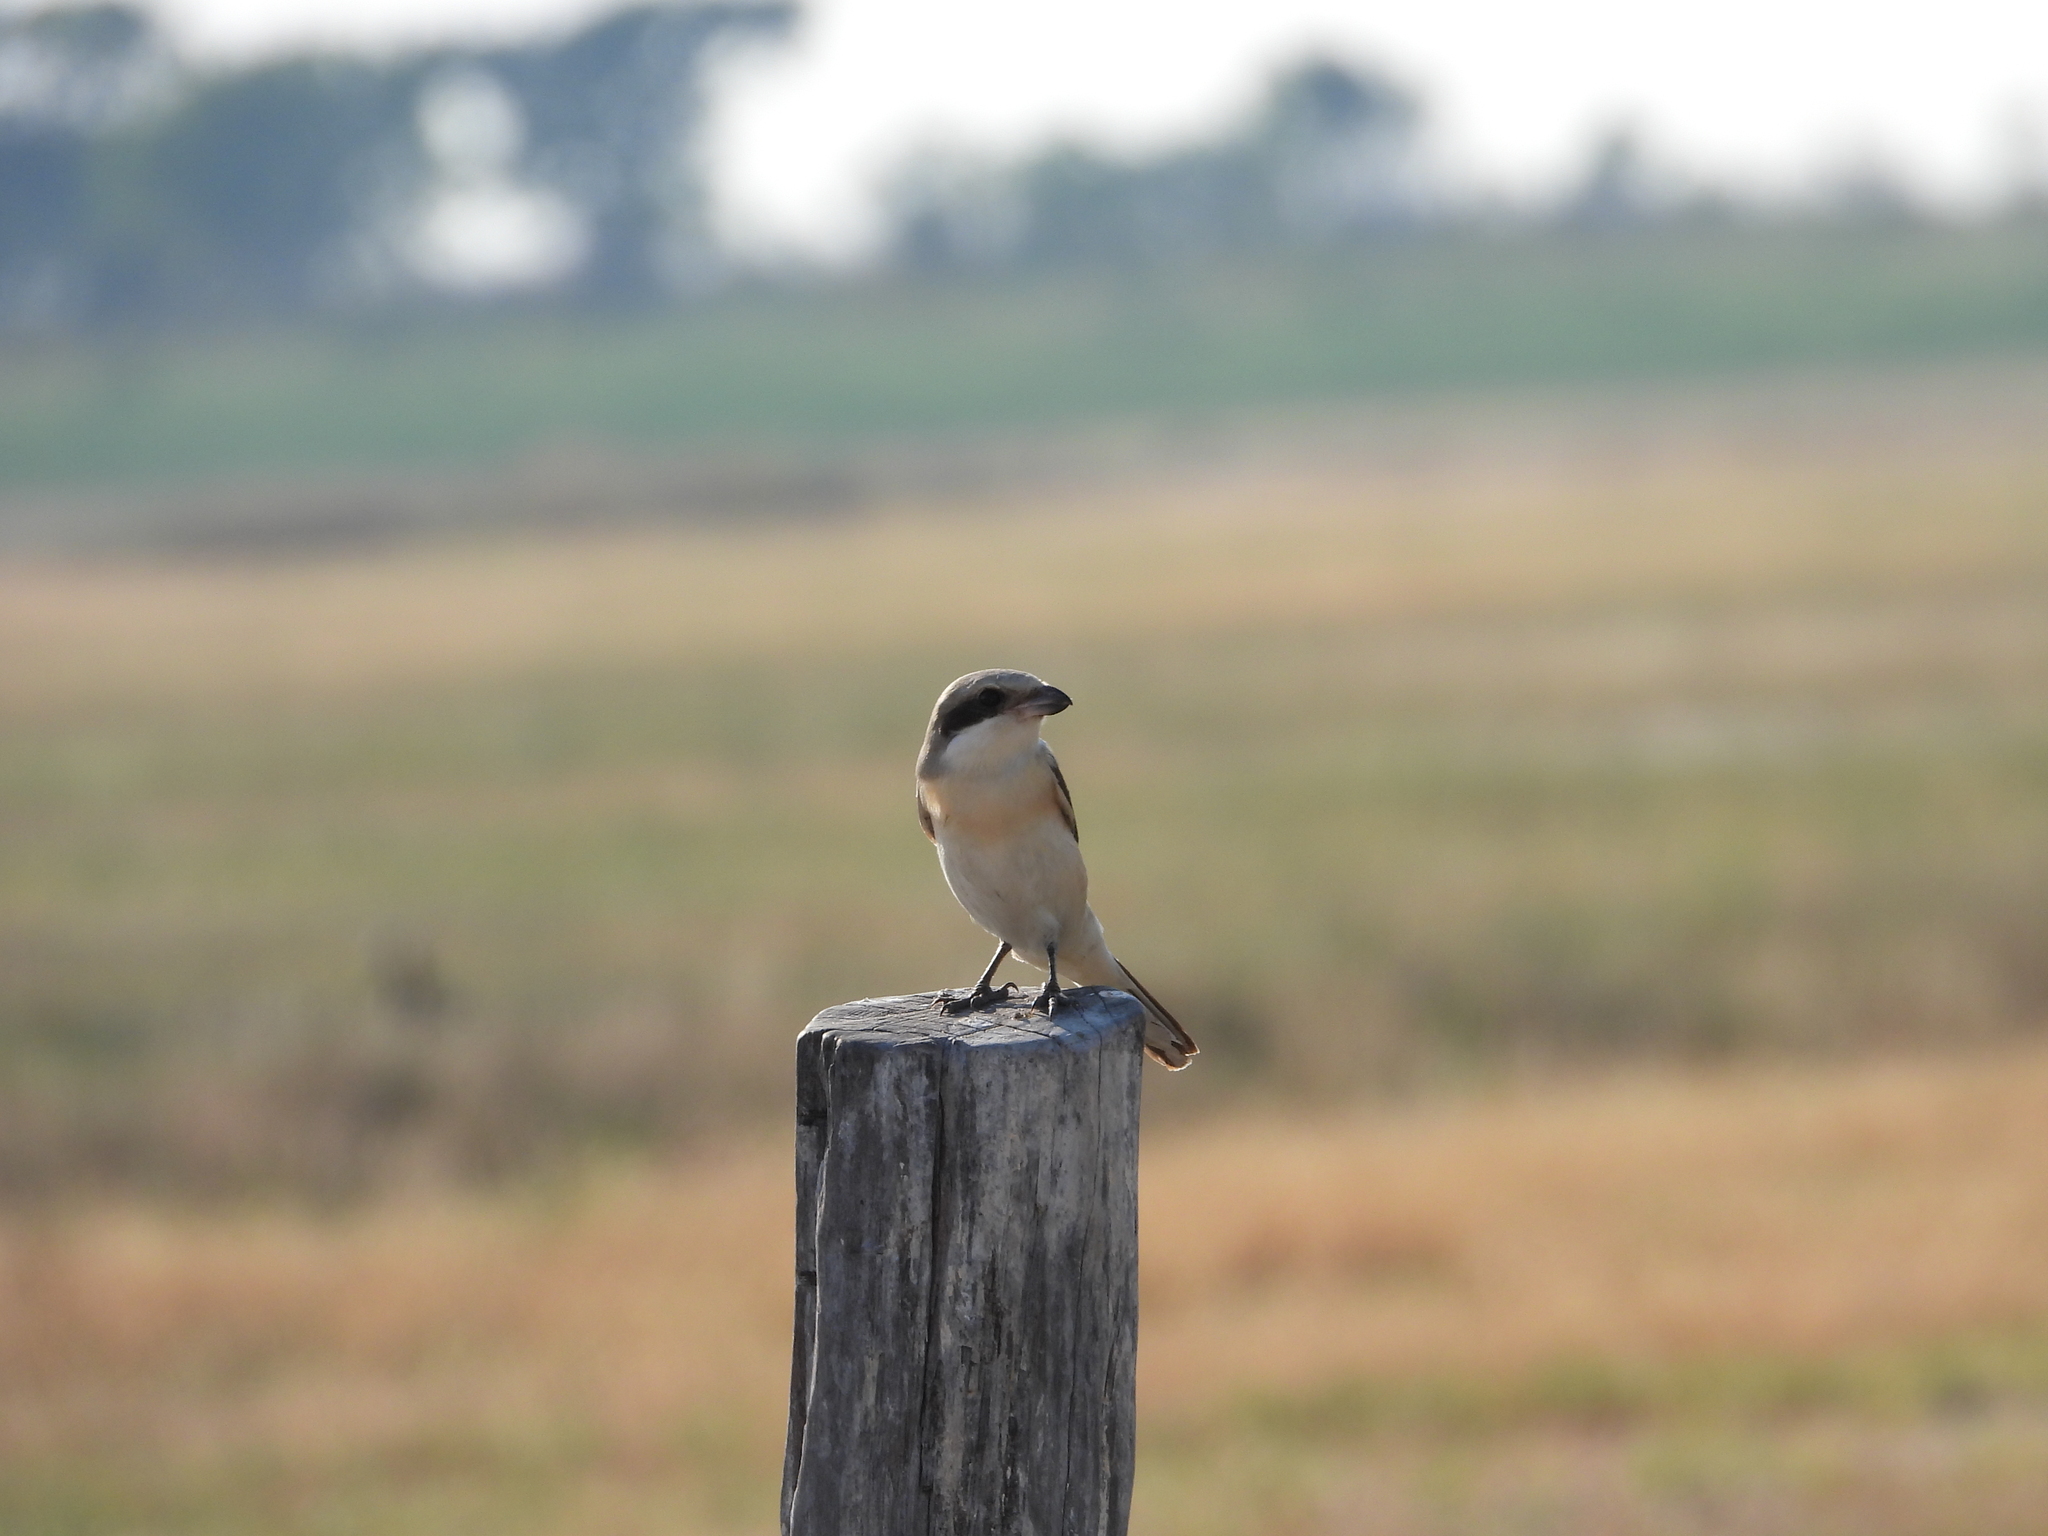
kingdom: Animalia
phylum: Chordata
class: Aves
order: Passeriformes
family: Laniidae
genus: Lanius
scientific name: Lanius collurio
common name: Red-backed shrike
